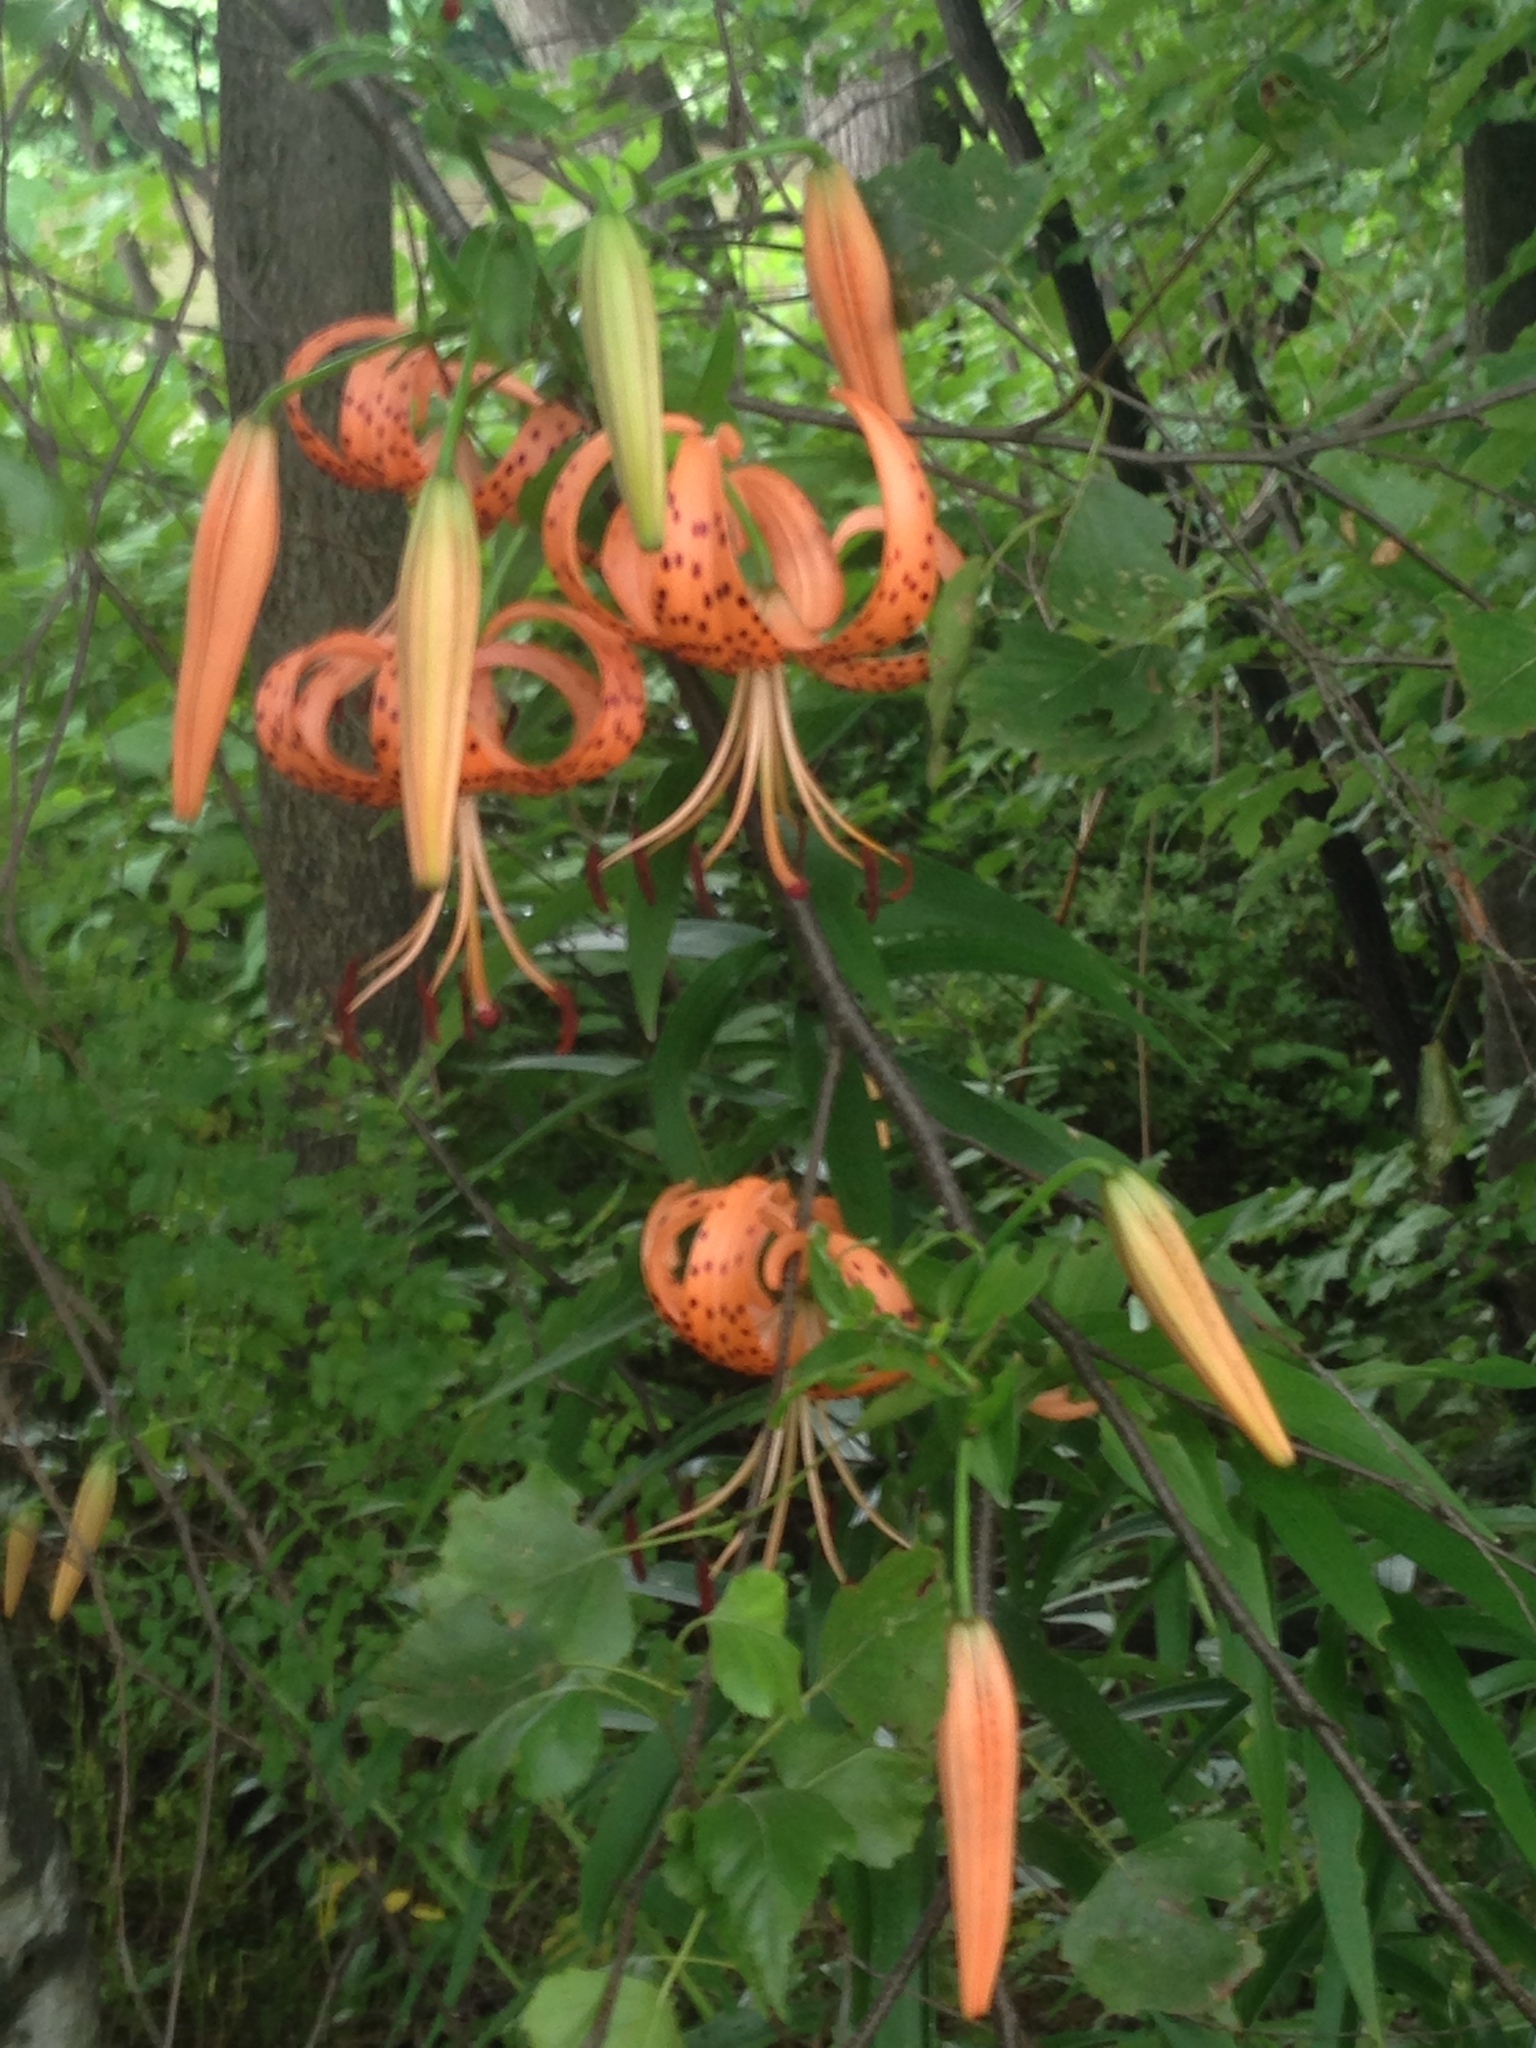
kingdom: Plantae
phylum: Tracheophyta
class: Liliopsida
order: Liliales
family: Liliaceae
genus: Lilium
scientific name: Lilium superbum
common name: American turk's-cap lily
